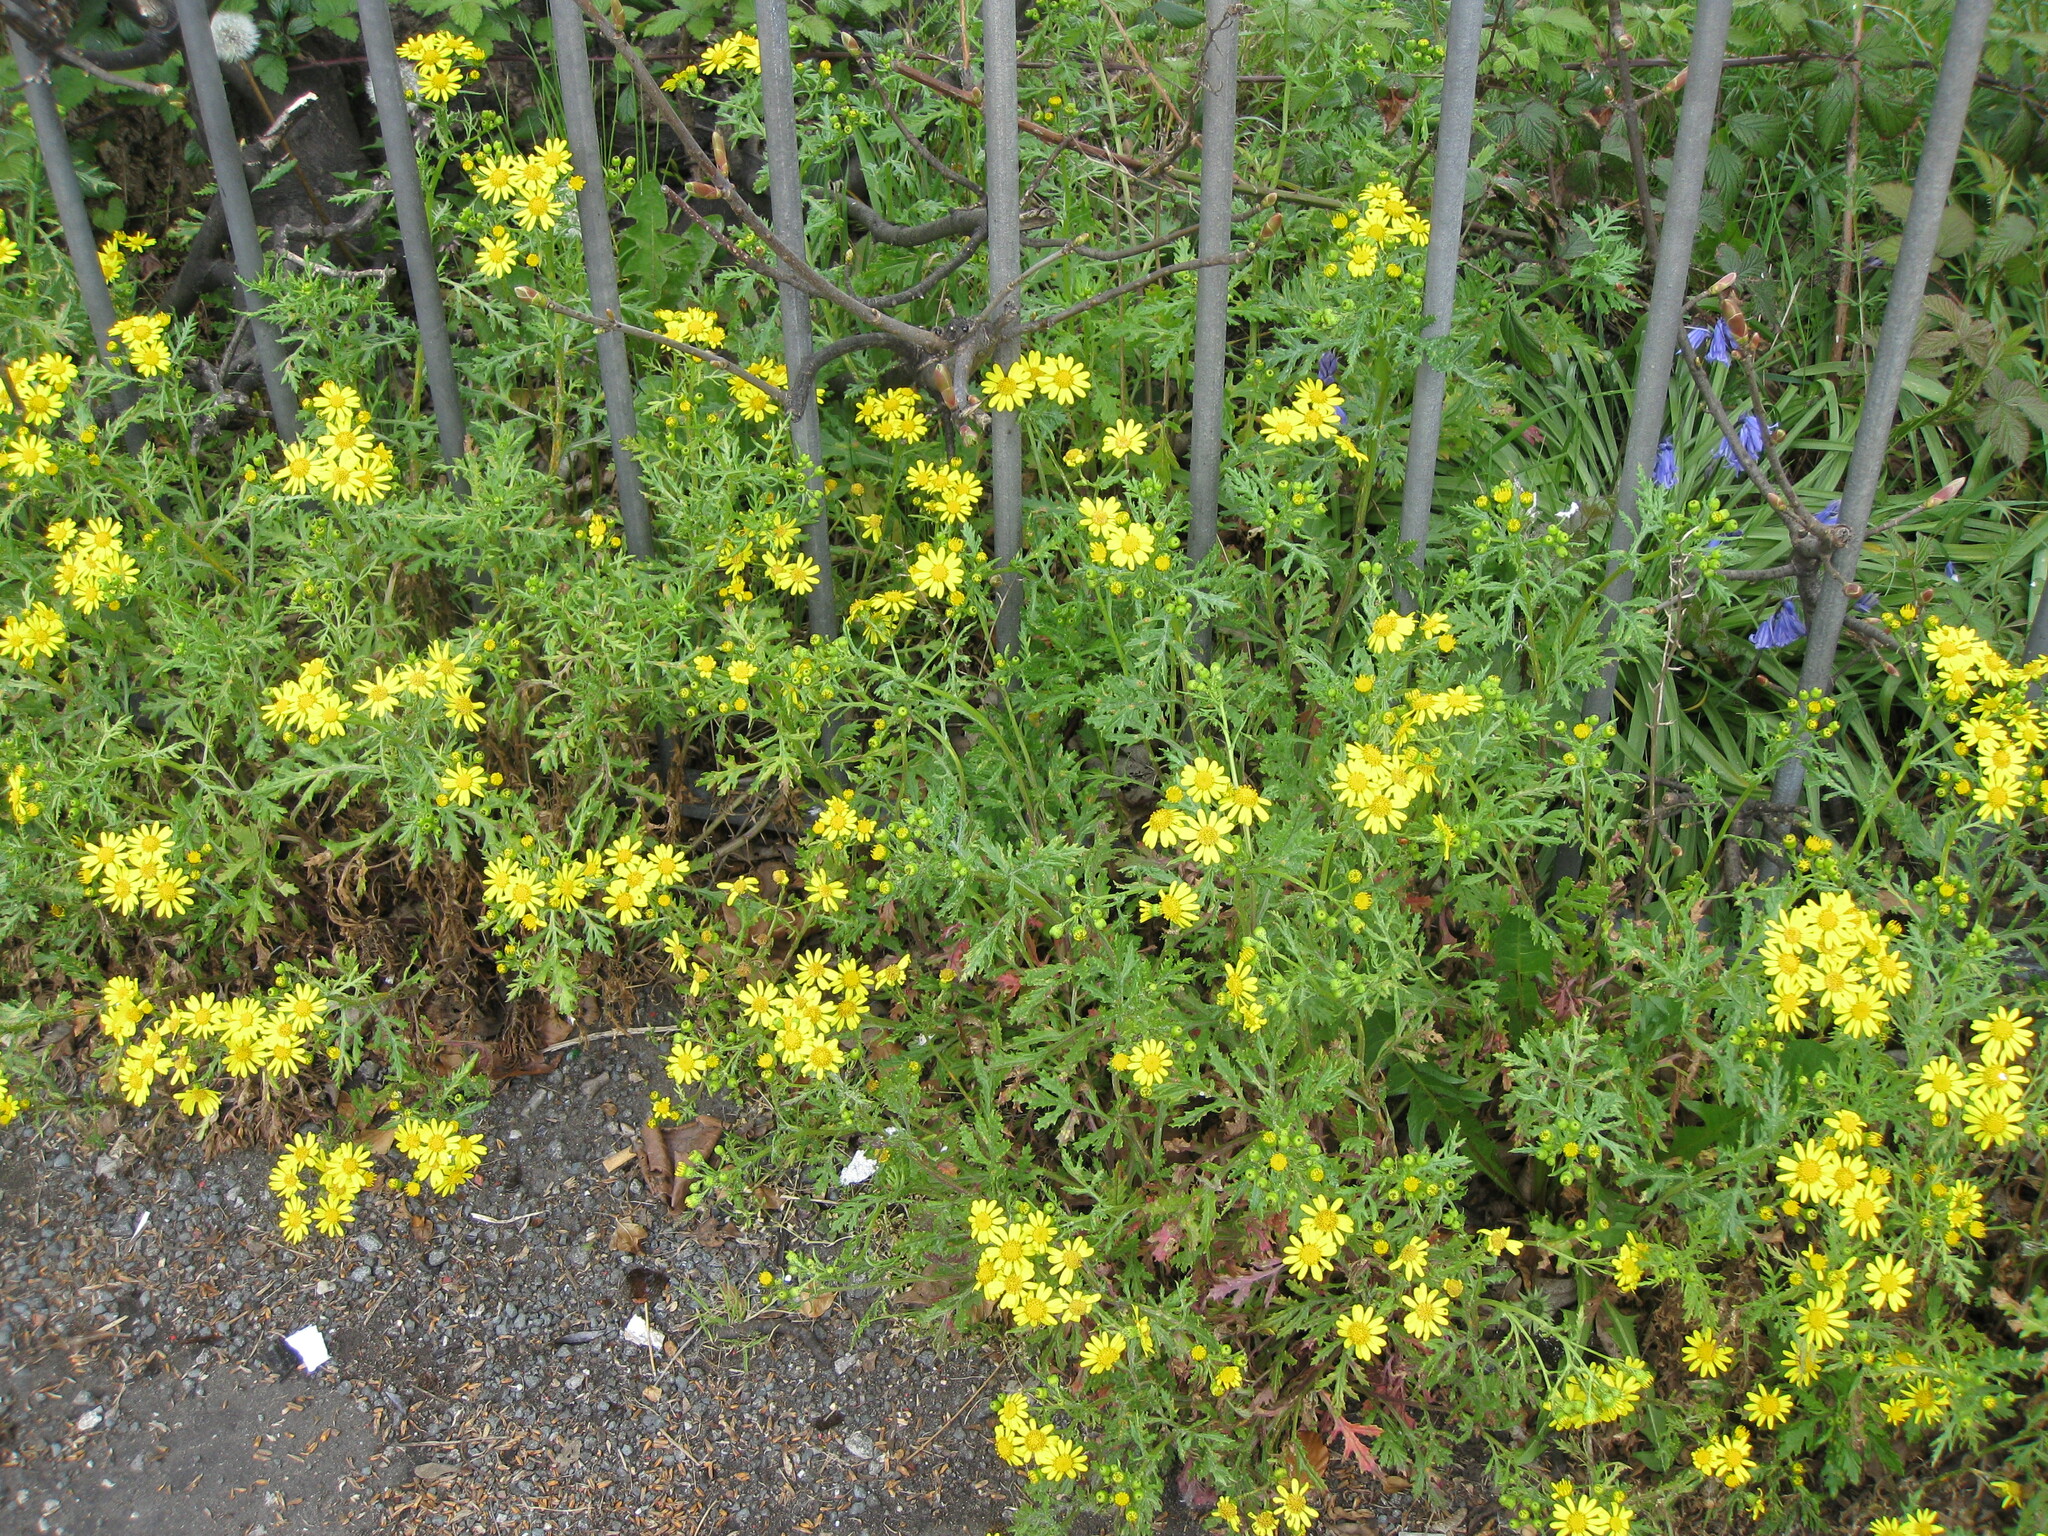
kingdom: Plantae
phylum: Tracheophyta
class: Magnoliopsida
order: Asterales
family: Asteraceae
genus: Senecio
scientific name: Senecio squalidus
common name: Oxford ragwort
